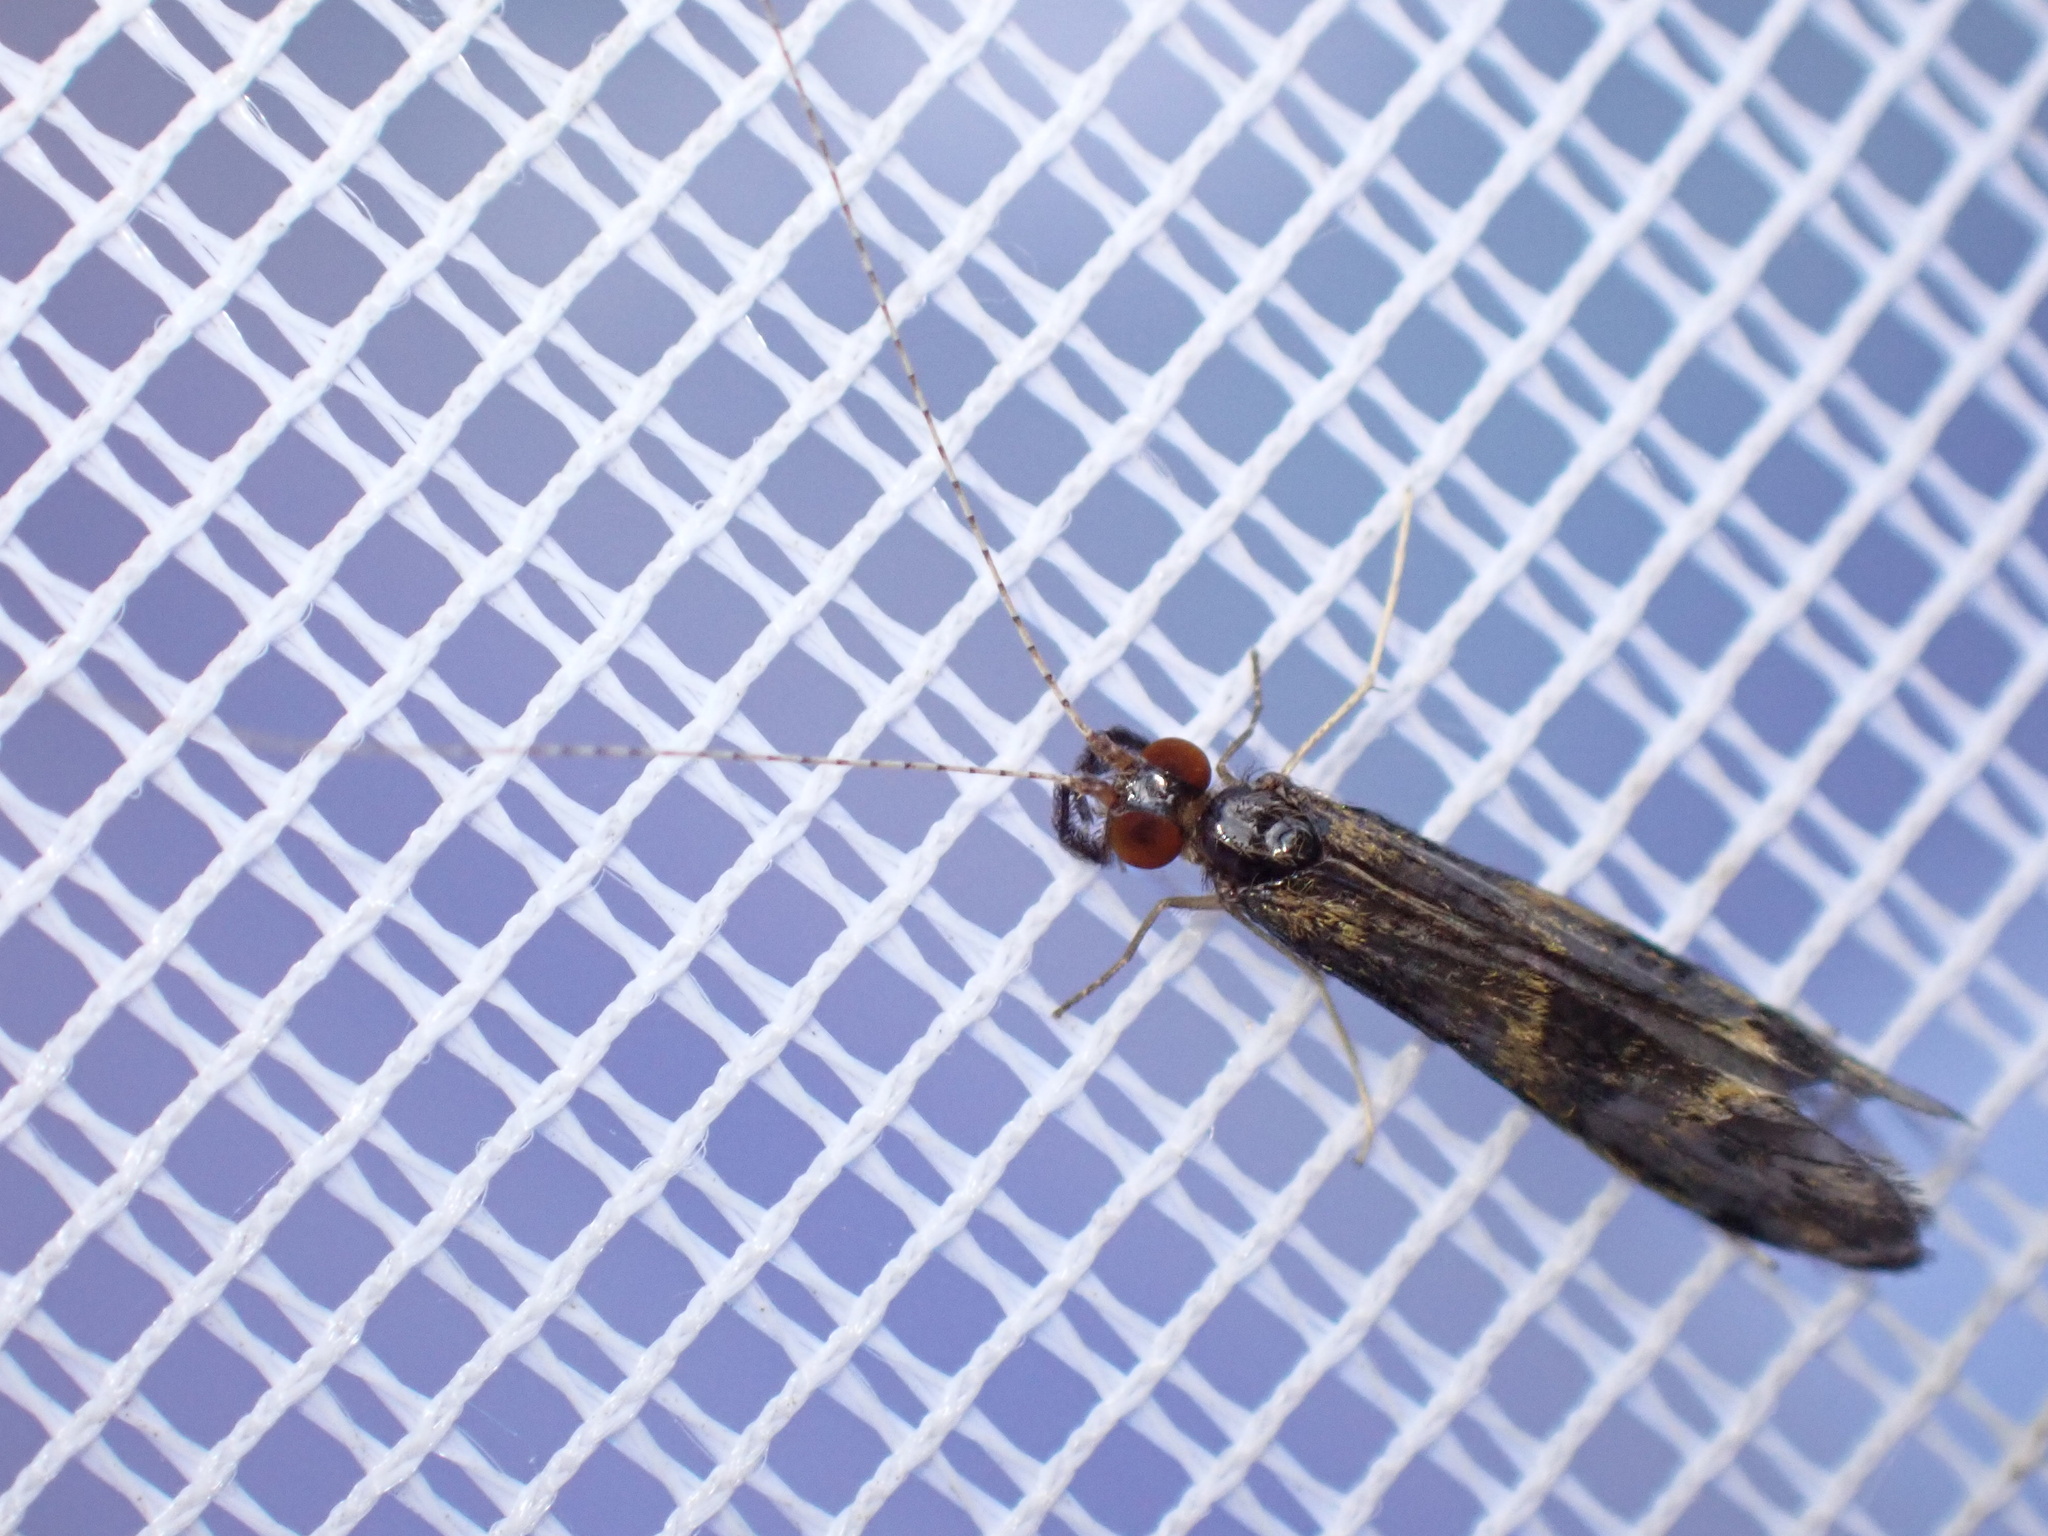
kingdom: Animalia
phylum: Arthropoda
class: Insecta
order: Trichoptera
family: Leptoceridae
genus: Mystacides
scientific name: Mystacides longicornis
